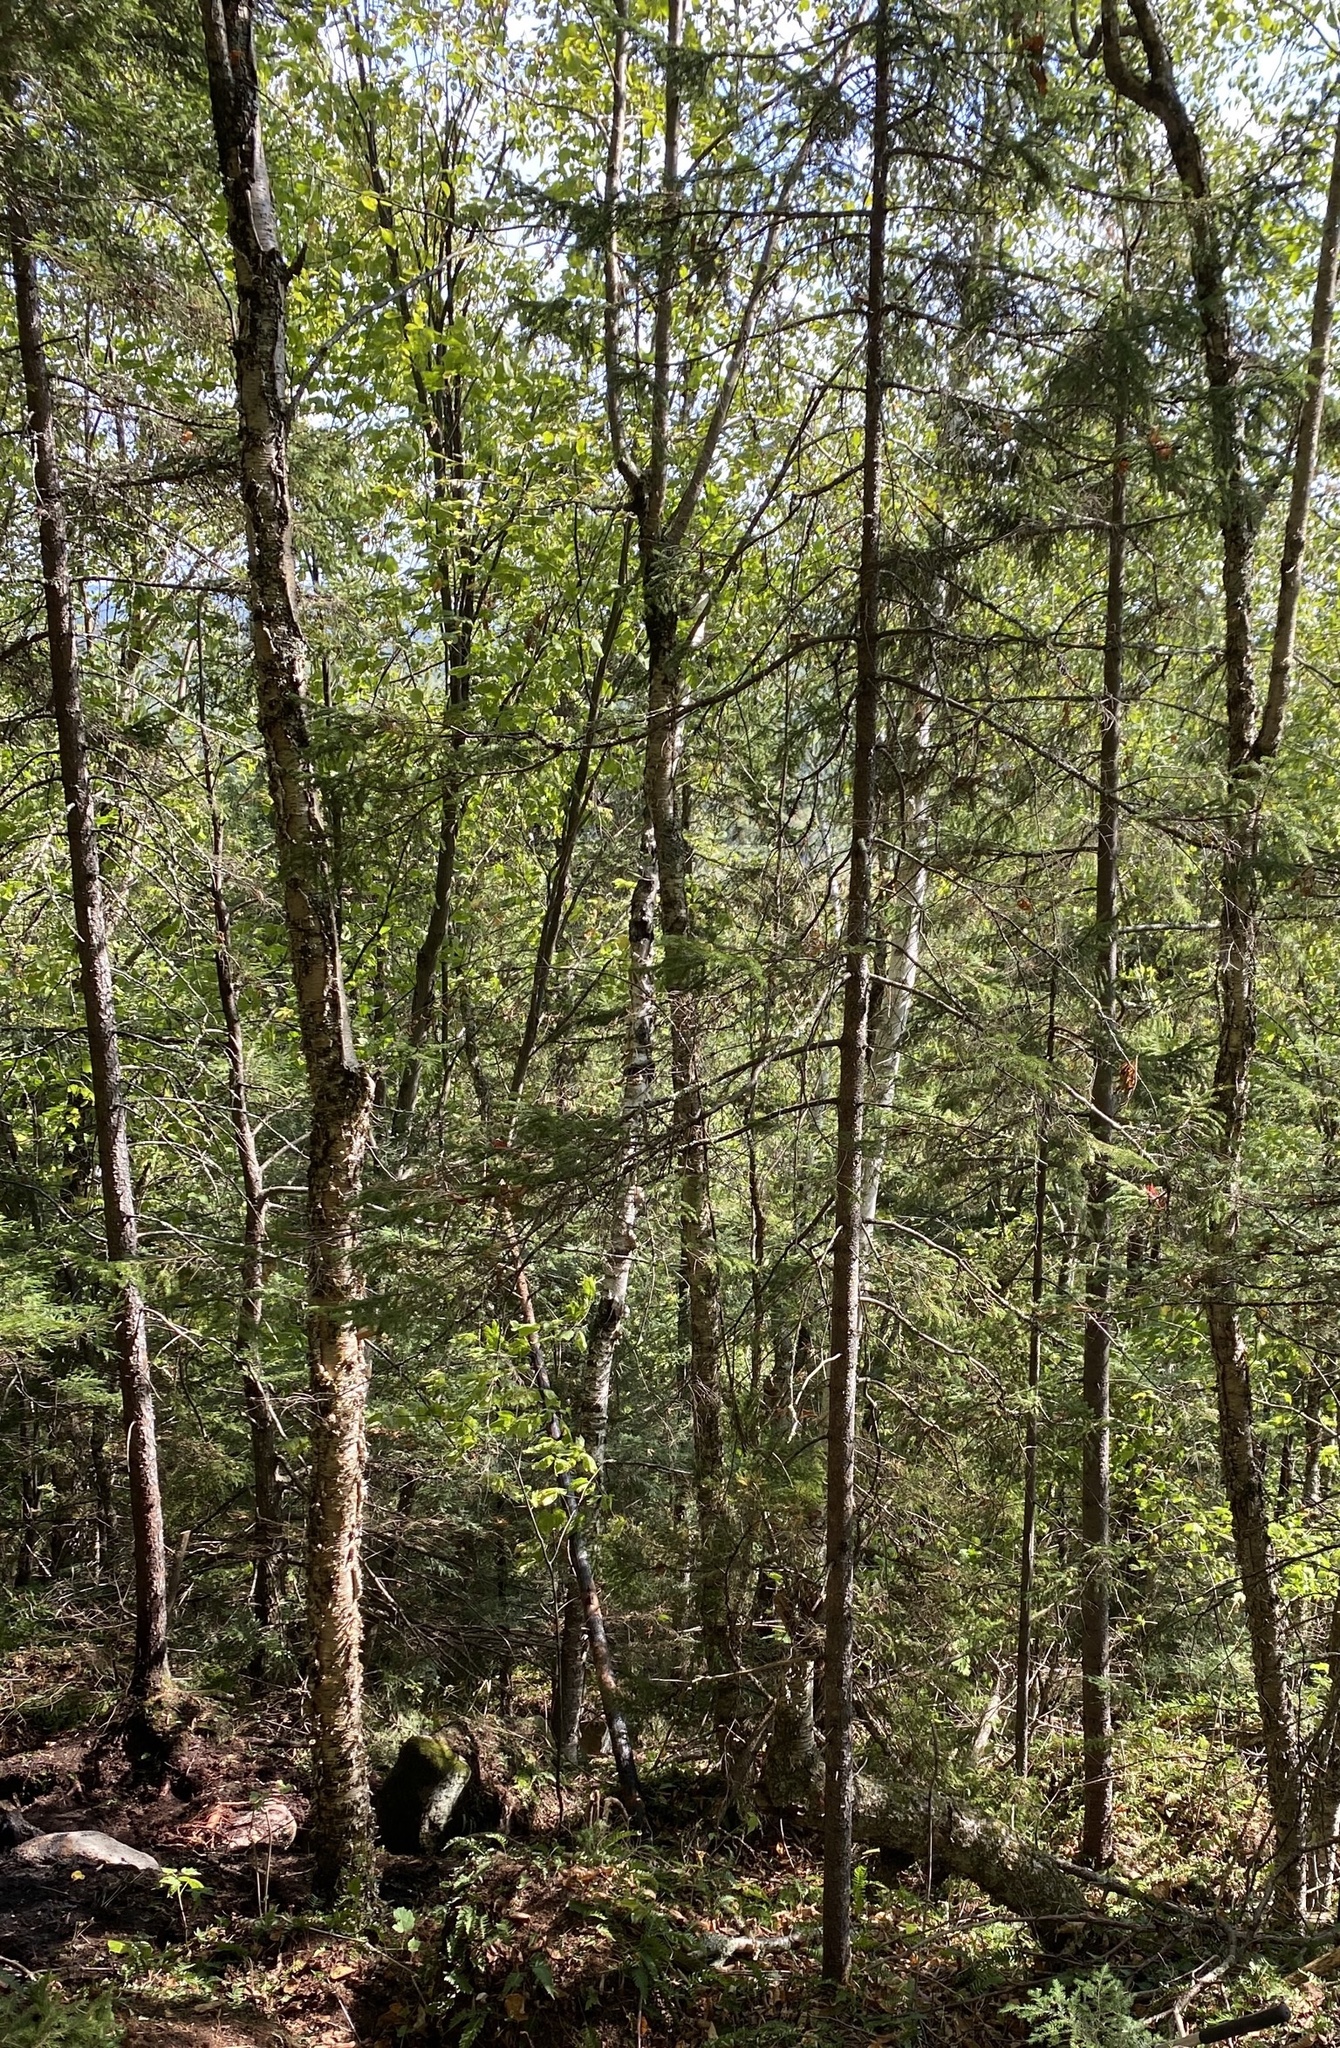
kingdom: Plantae
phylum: Tracheophyta
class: Magnoliopsida
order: Fagales
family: Betulaceae
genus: Betula
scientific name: Betula alleghaniensis
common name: Yellow birch
